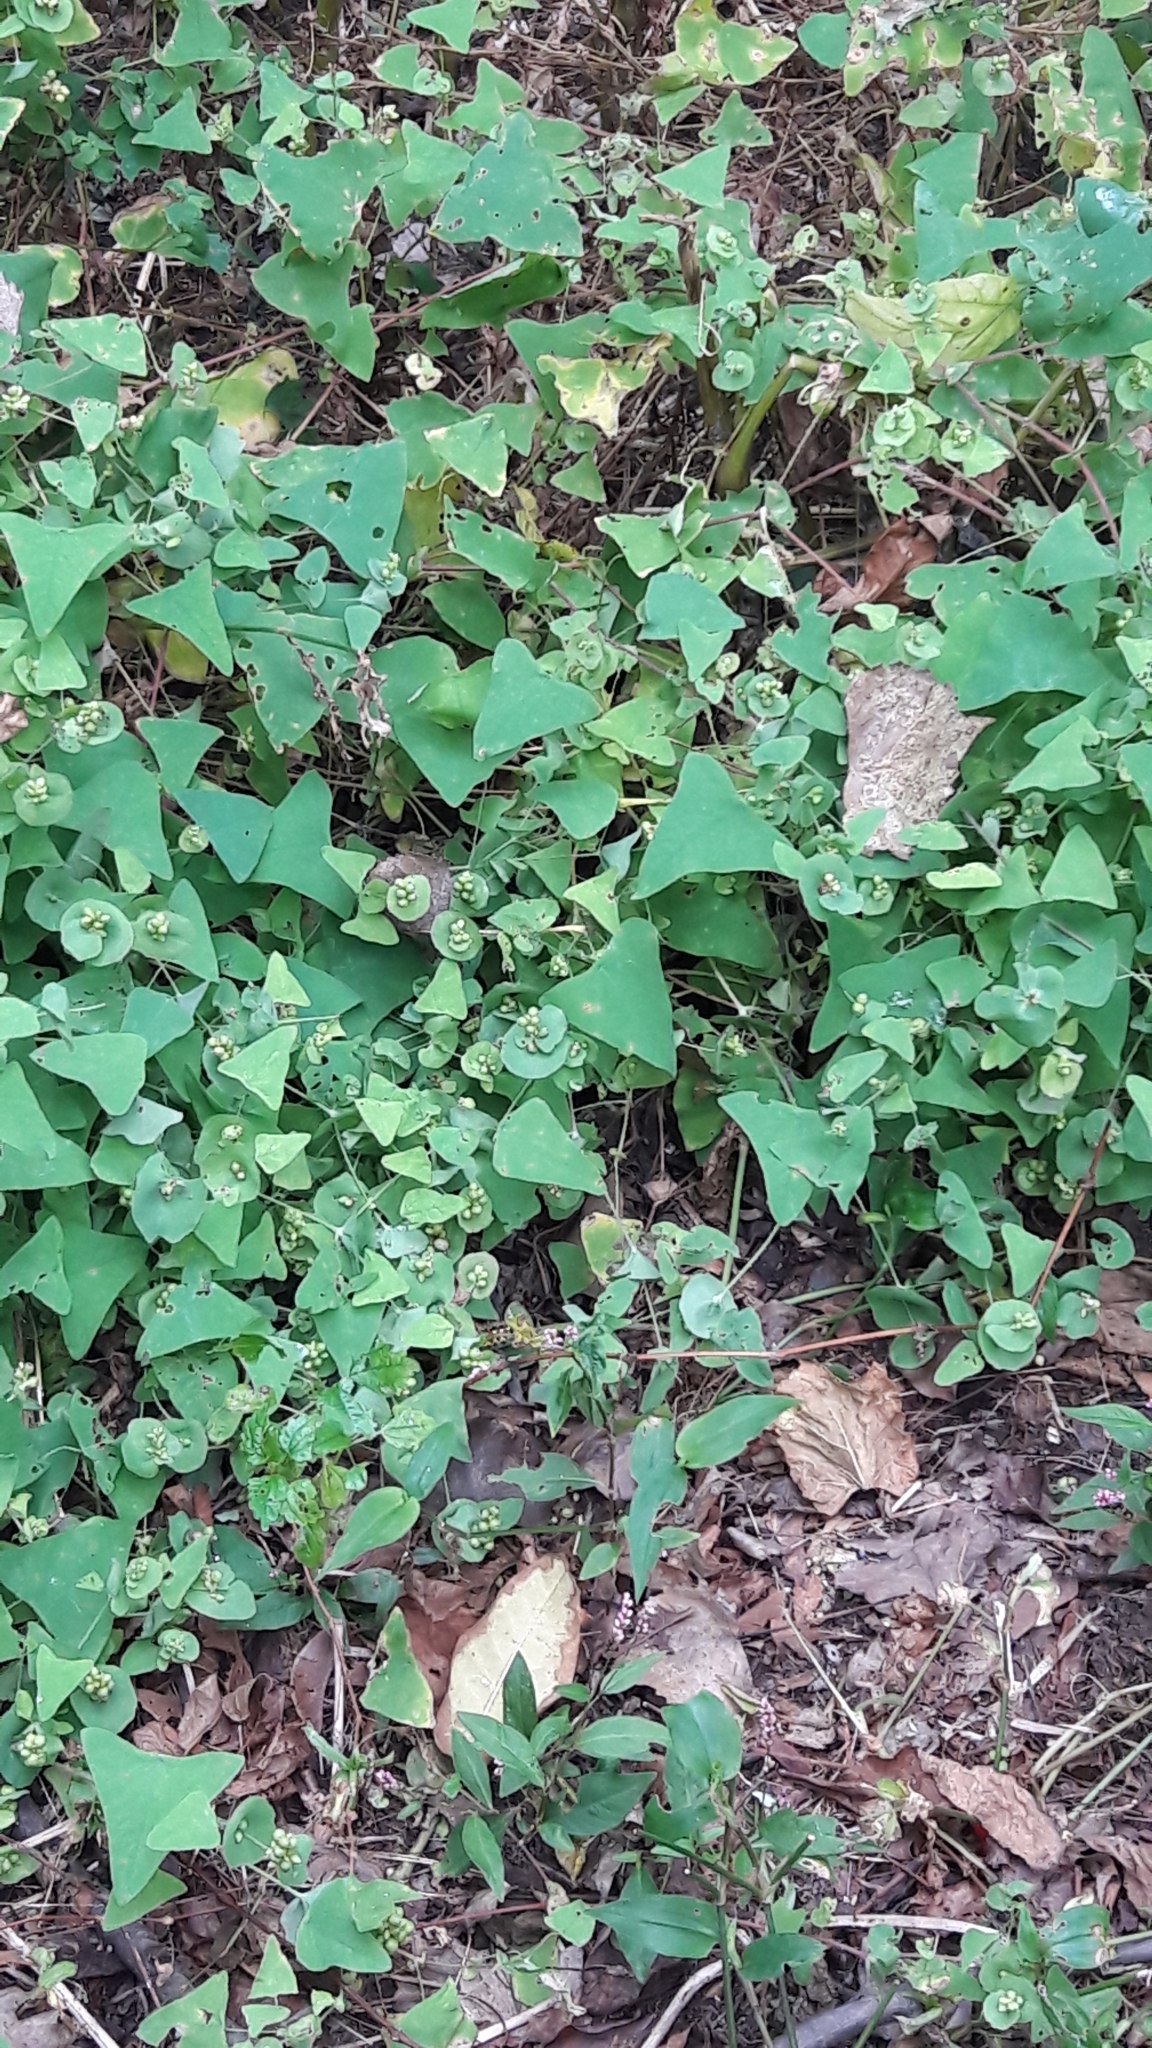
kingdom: Plantae
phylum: Tracheophyta
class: Magnoliopsida
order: Caryophyllales
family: Polygonaceae
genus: Persicaria
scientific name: Persicaria perfoliata
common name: Asiatic tearthumb
